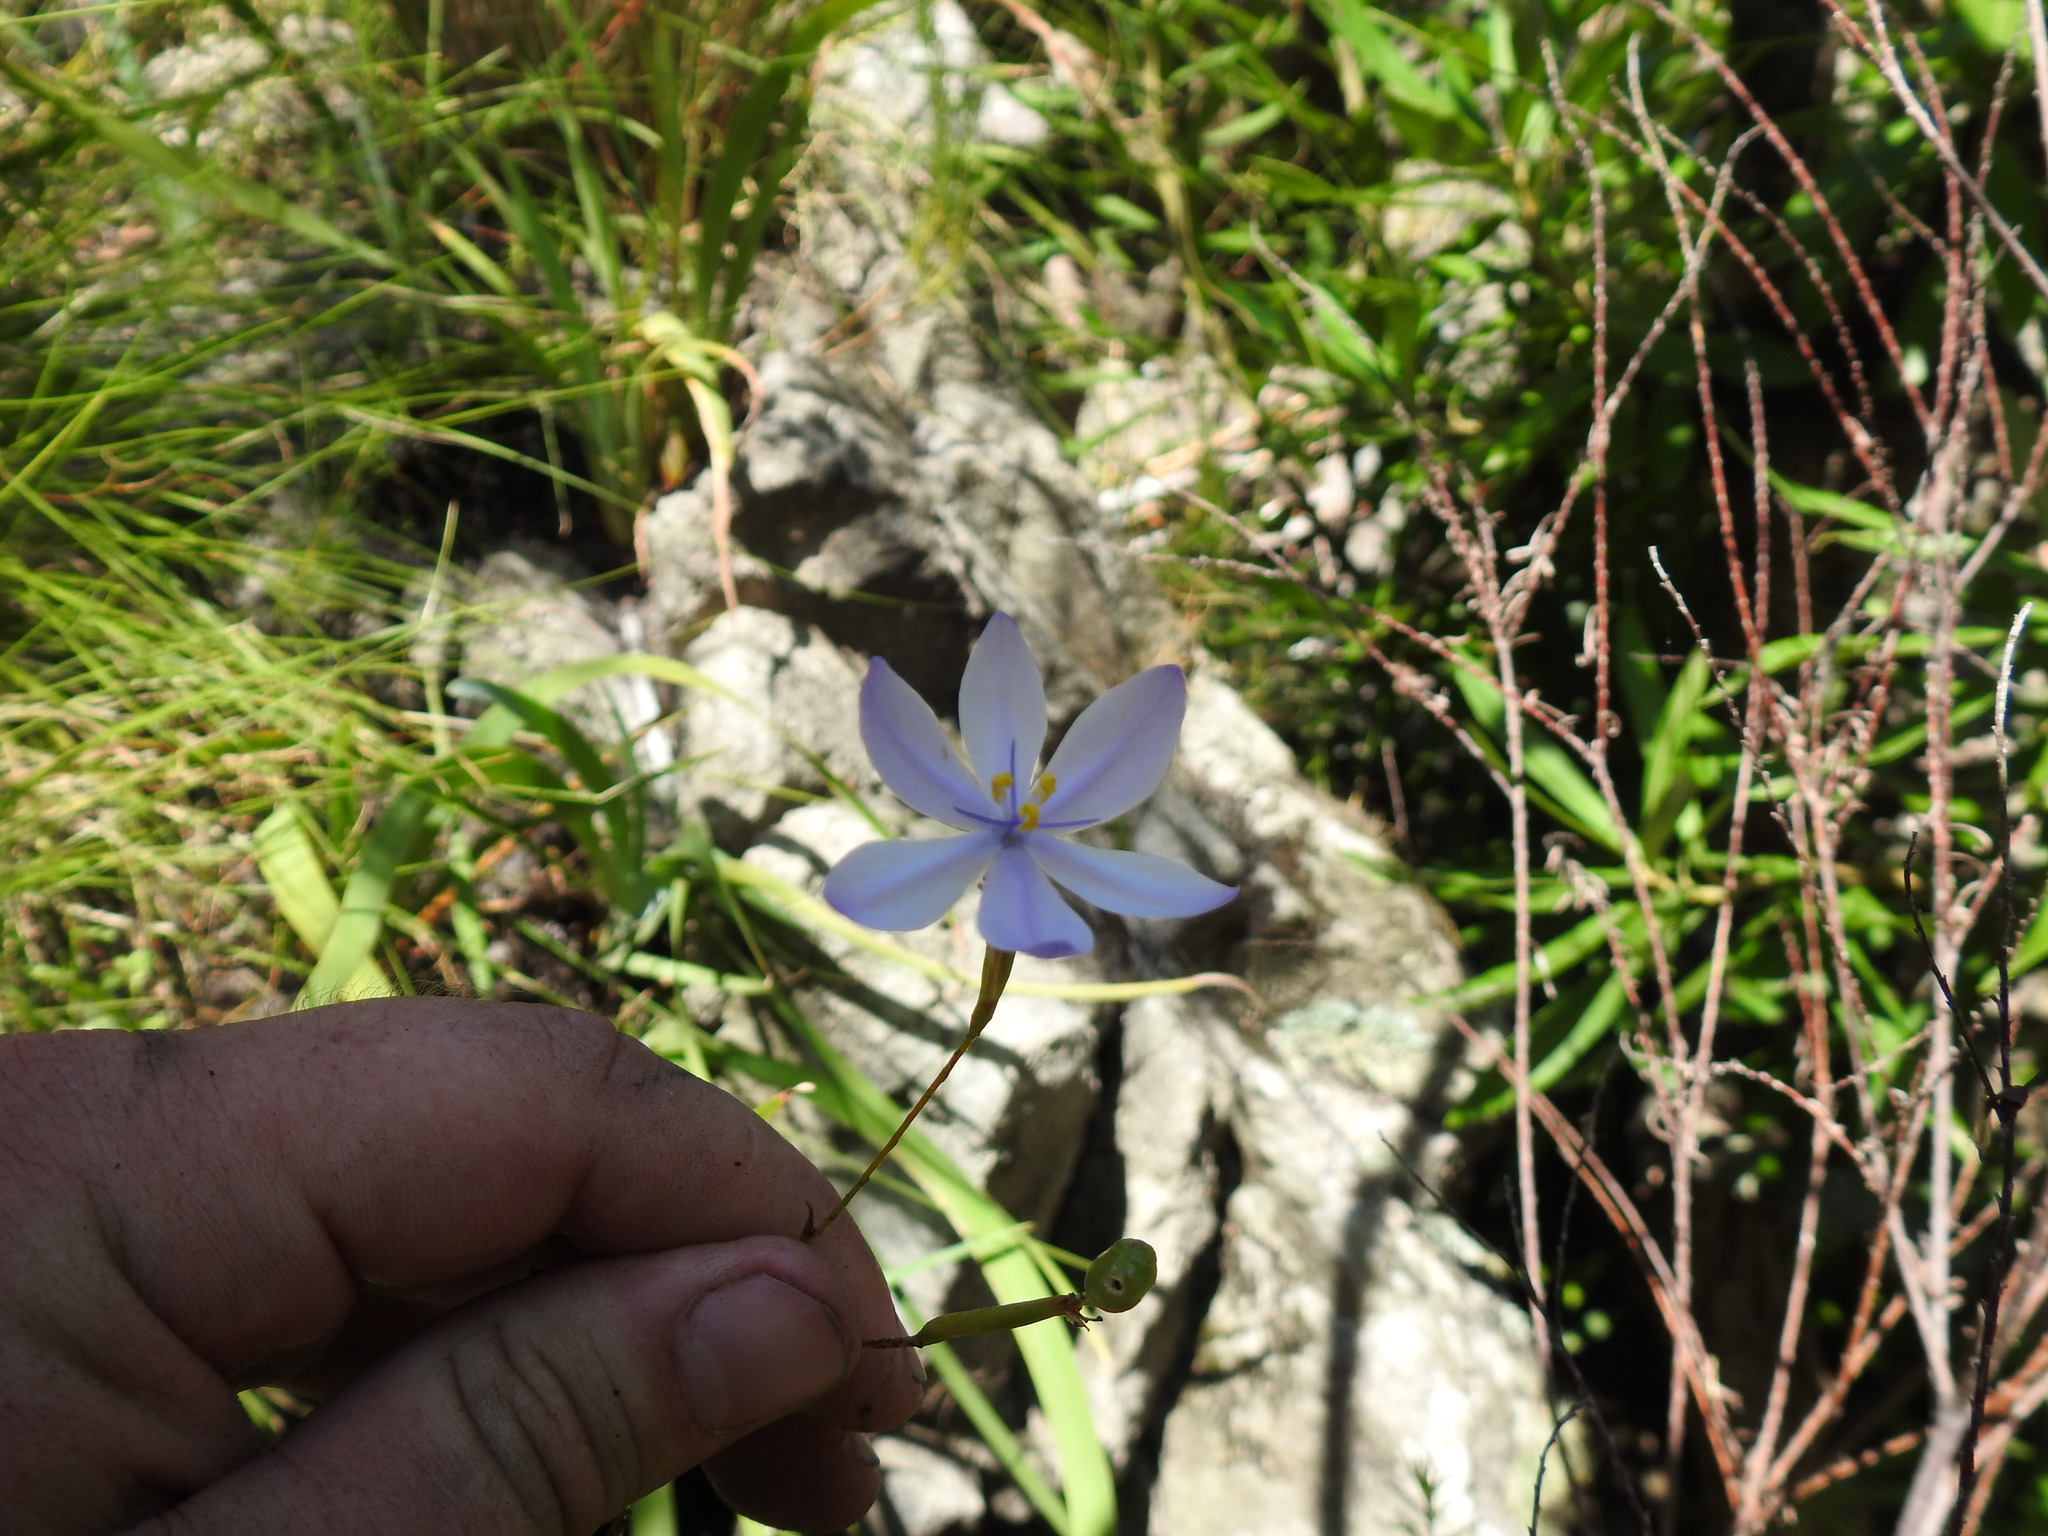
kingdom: Plantae
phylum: Tracheophyta
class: Liliopsida
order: Asparagales
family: Iridaceae
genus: Bobartia
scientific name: Bobartia lilacina
